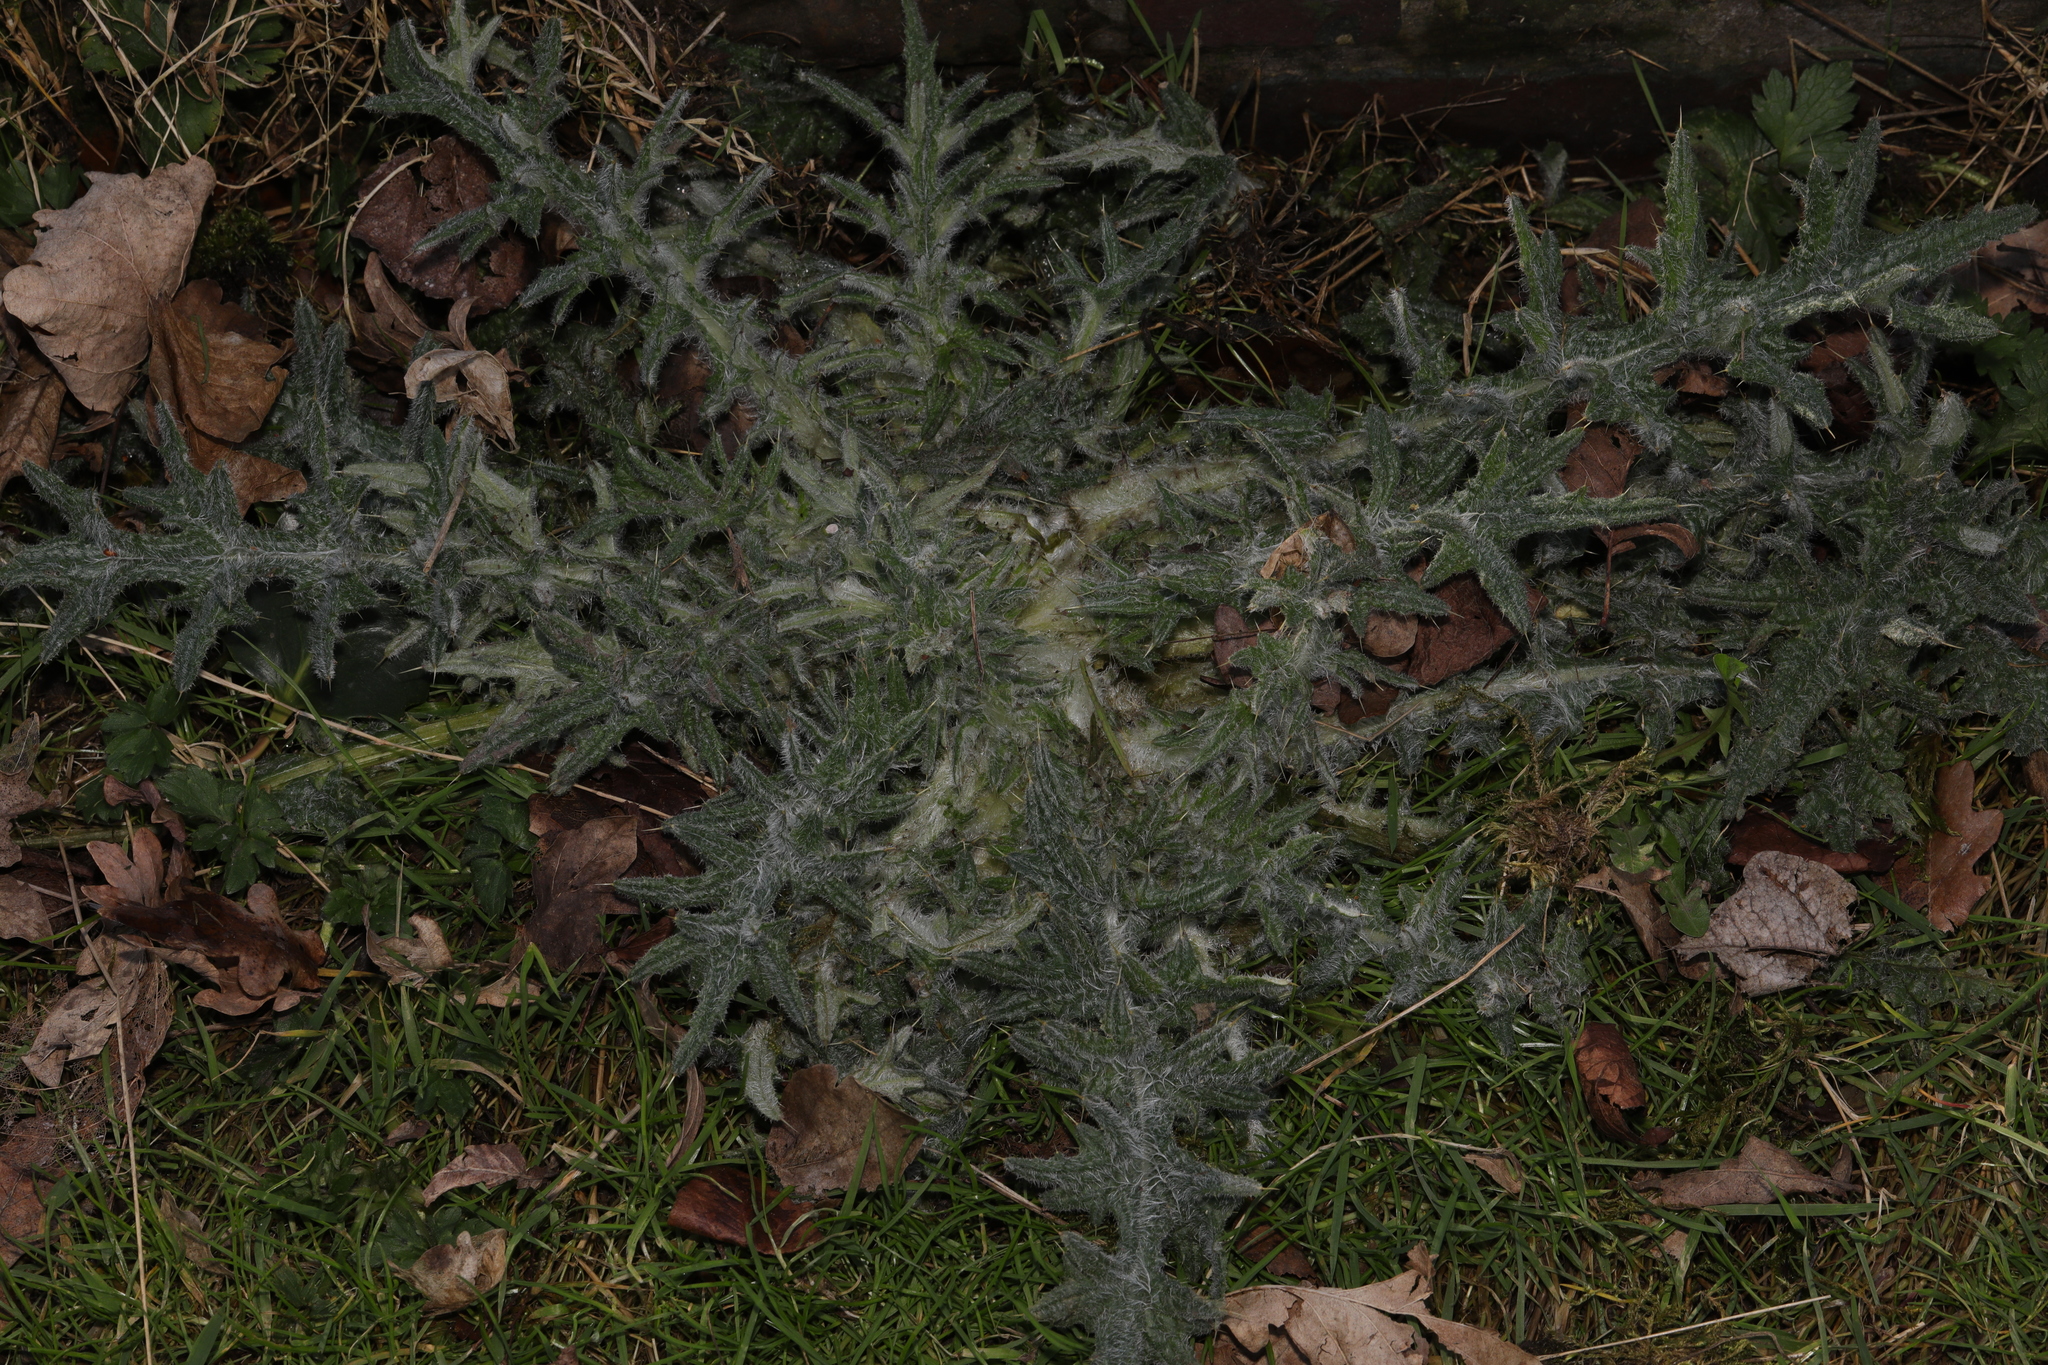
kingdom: Plantae
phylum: Tracheophyta
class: Magnoliopsida
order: Asterales
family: Asteraceae
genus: Cirsium
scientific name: Cirsium vulgare
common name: Bull thistle
